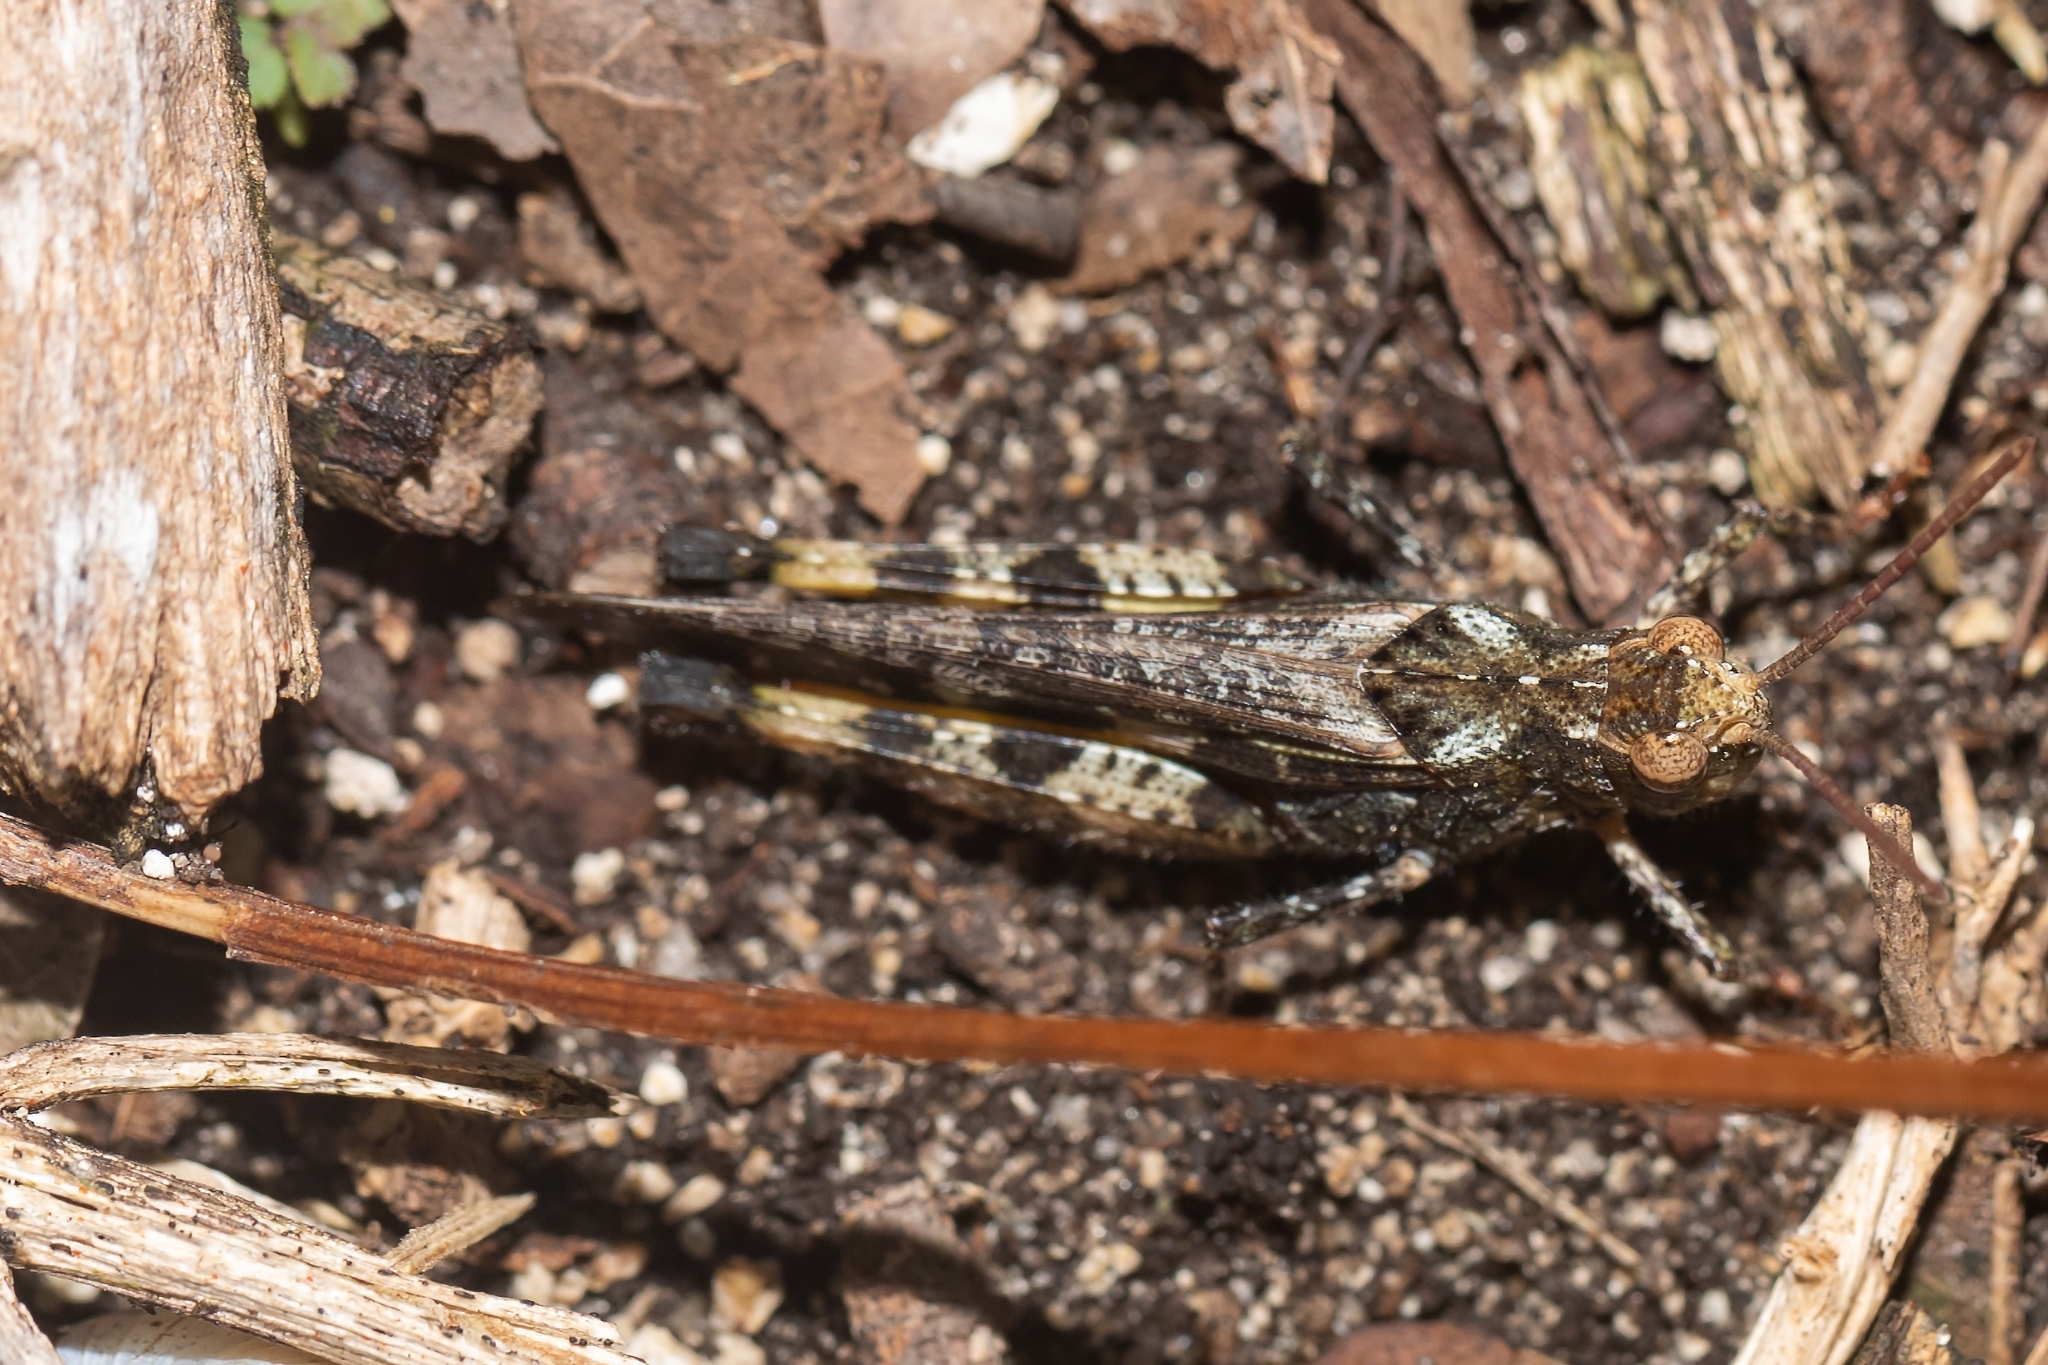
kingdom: Animalia
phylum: Arthropoda
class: Insecta
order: Orthoptera
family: Acrididae
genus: Chortophaga
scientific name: Chortophaga australior
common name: Southern green-striped grasshopper
